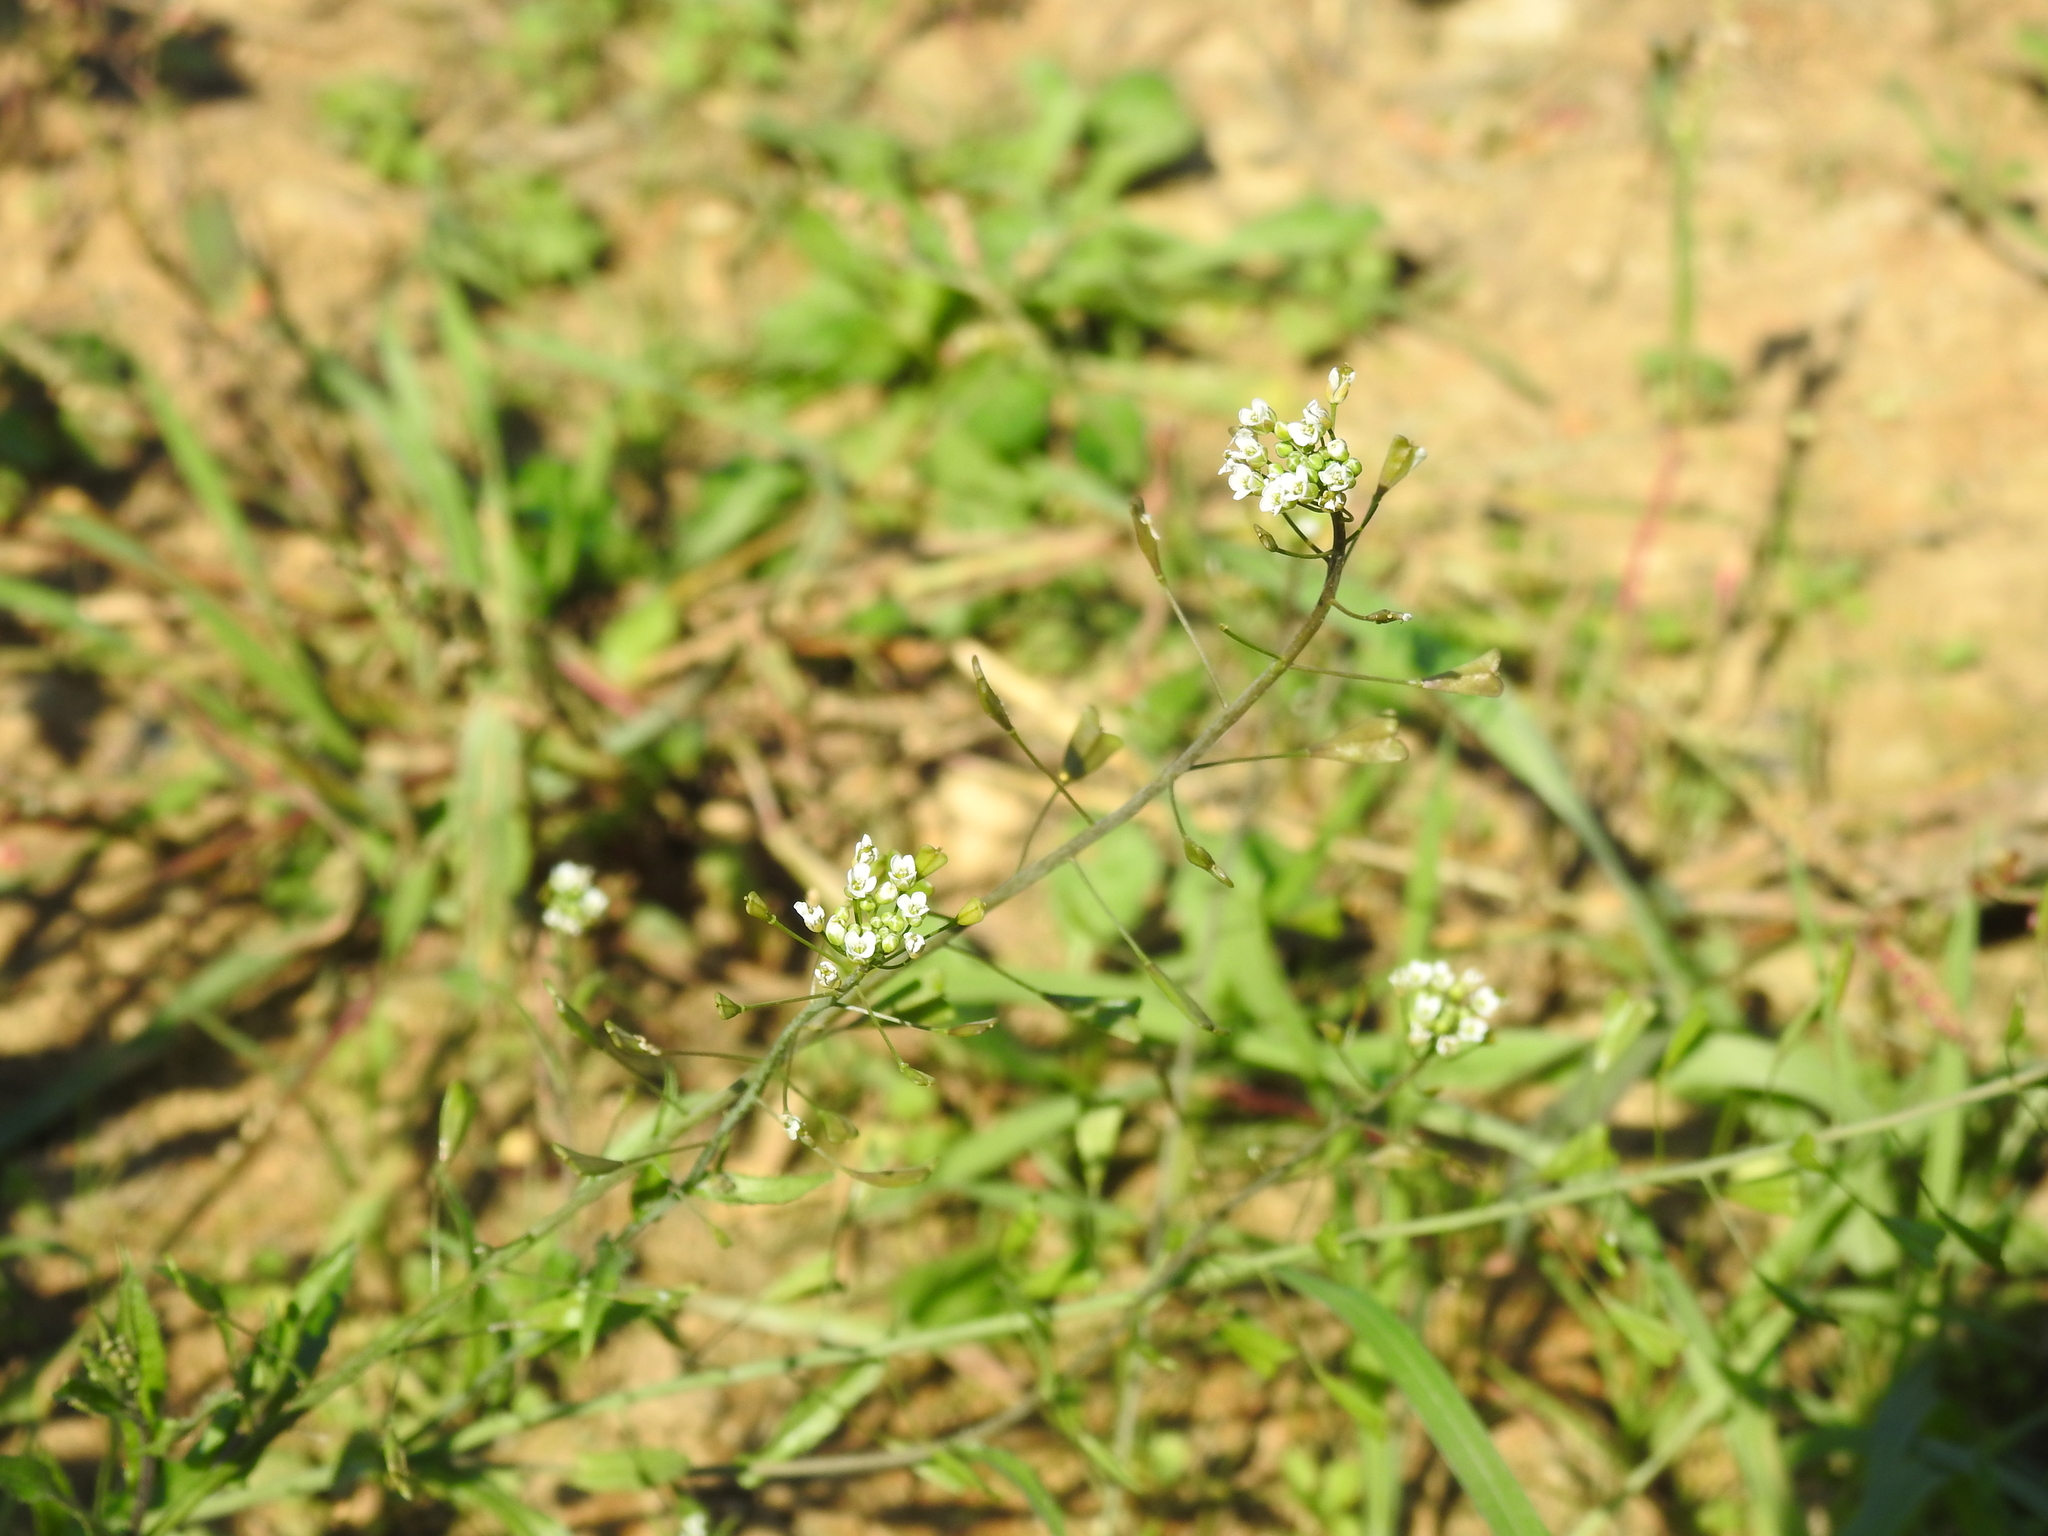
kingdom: Plantae
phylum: Tracheophyta
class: Magnoliopsida
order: Brassicales
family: Brassicaceae
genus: Capsella
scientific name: Capsella bursa-pastoris
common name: Shepherd's purse
